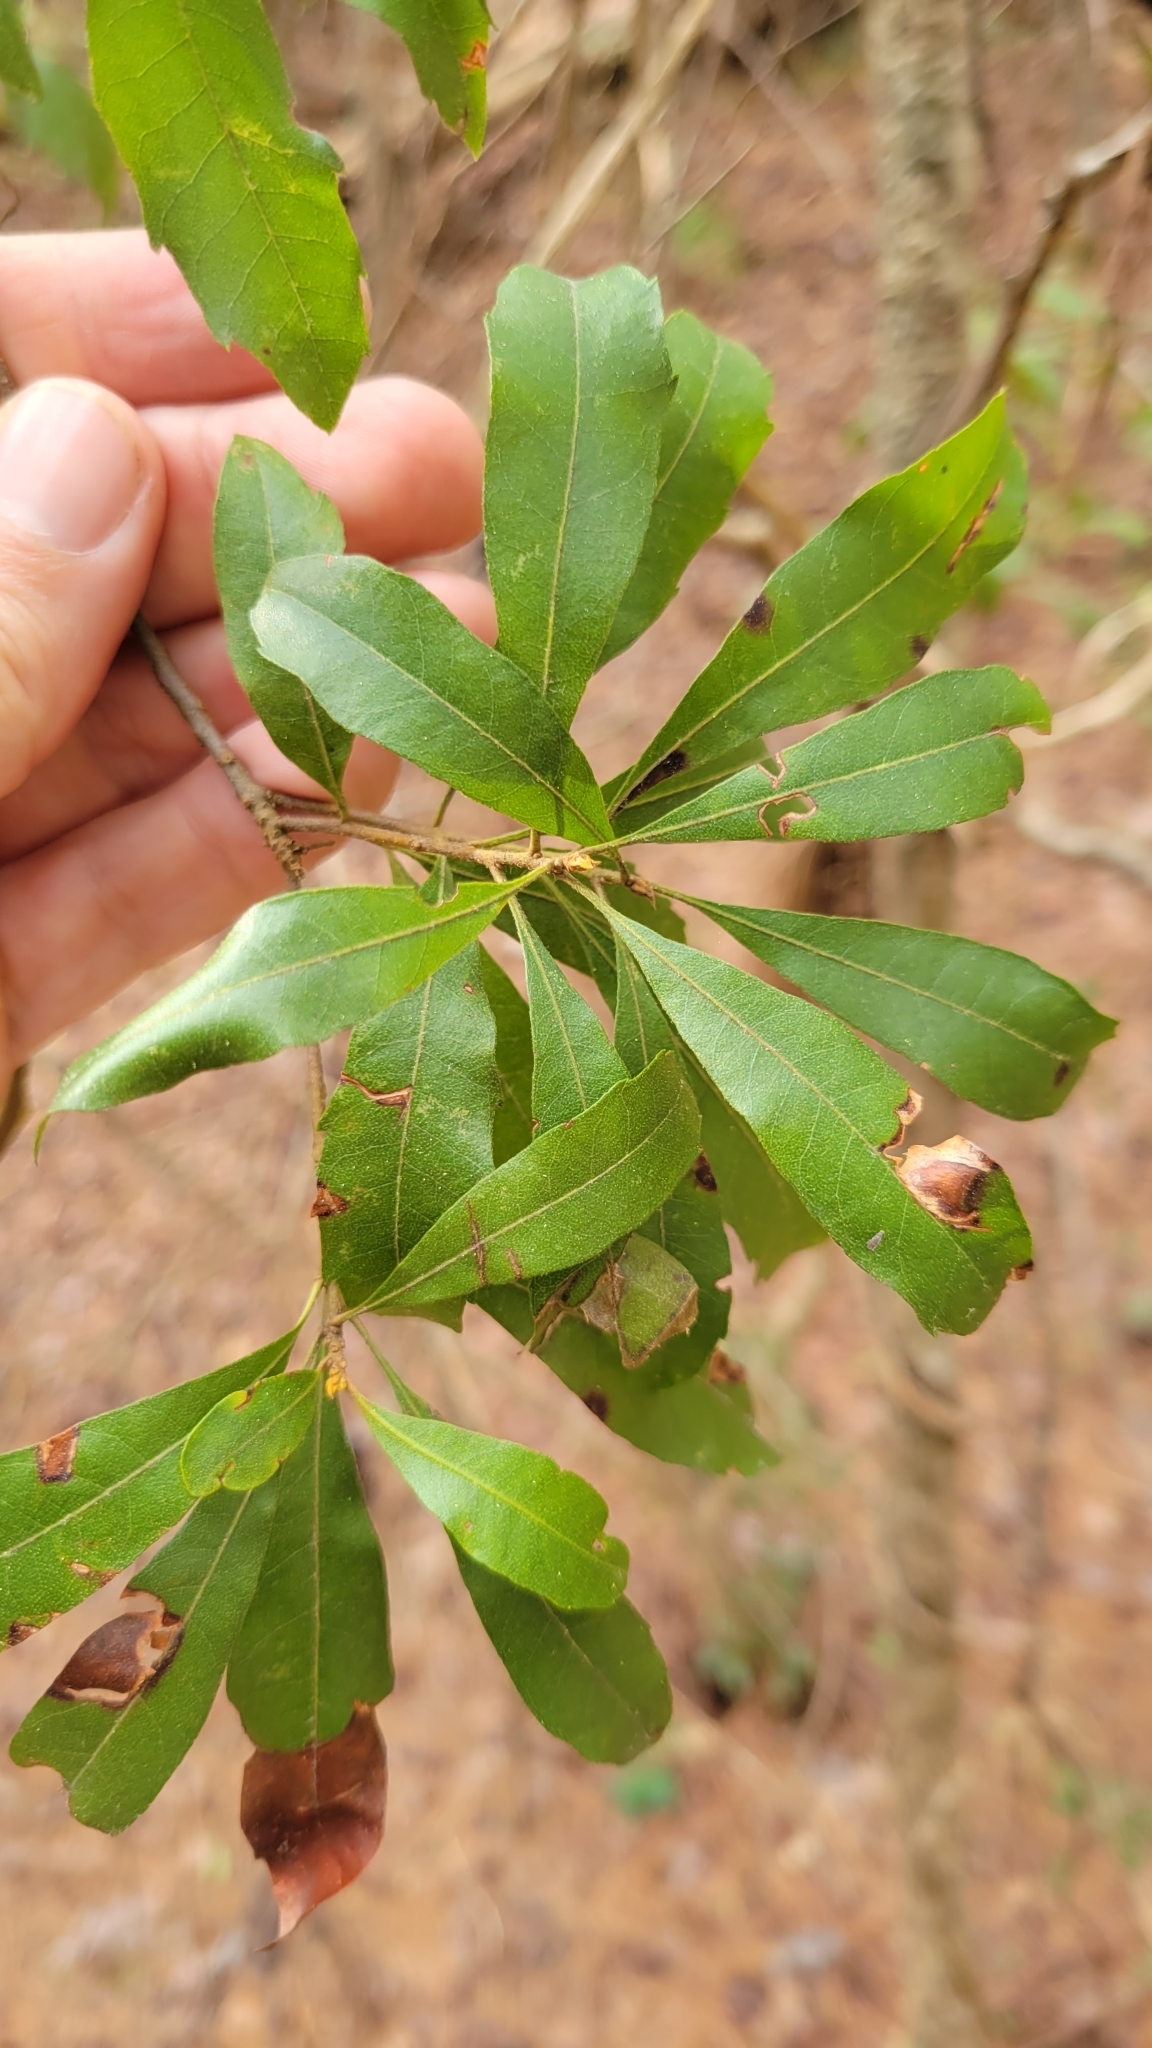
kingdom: Plantae
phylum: Tracheophyta
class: Magnoliopsida
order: Fagales
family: Myricaceae
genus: Morella
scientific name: Morella cerifera
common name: Wax myrtle
